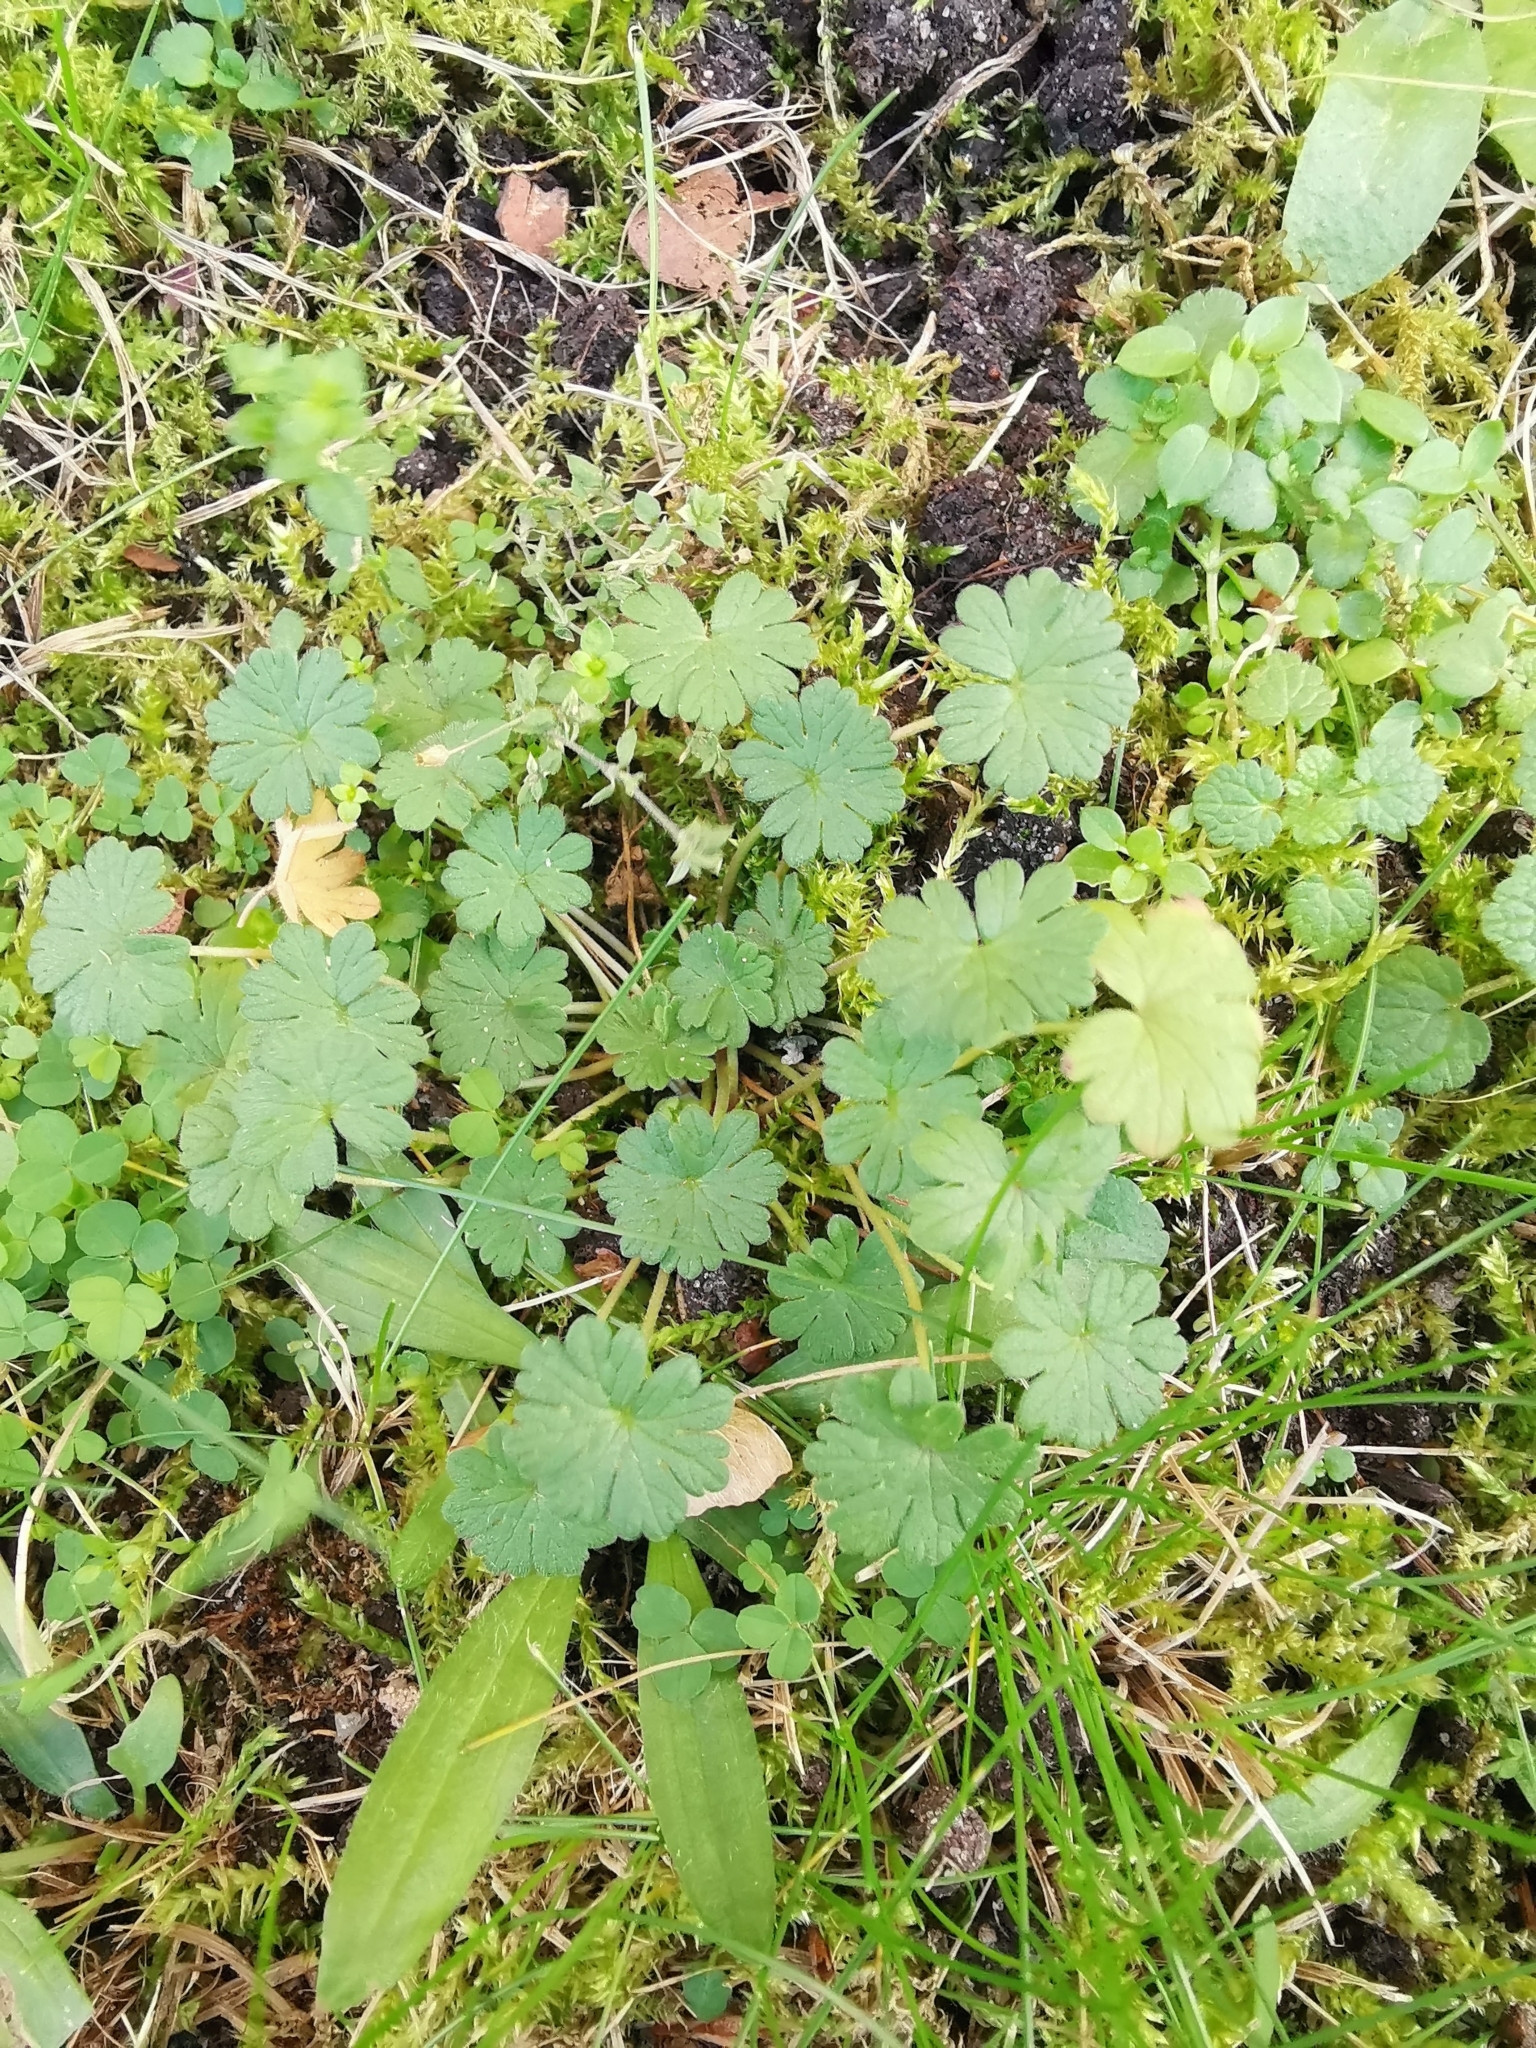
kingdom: Plantae
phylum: Tracheophyta
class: Magnoliopsida
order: Geraniales
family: Geraniaceae
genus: Geranium
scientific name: Geranium molle
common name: Dove's-foot crane's-bill
